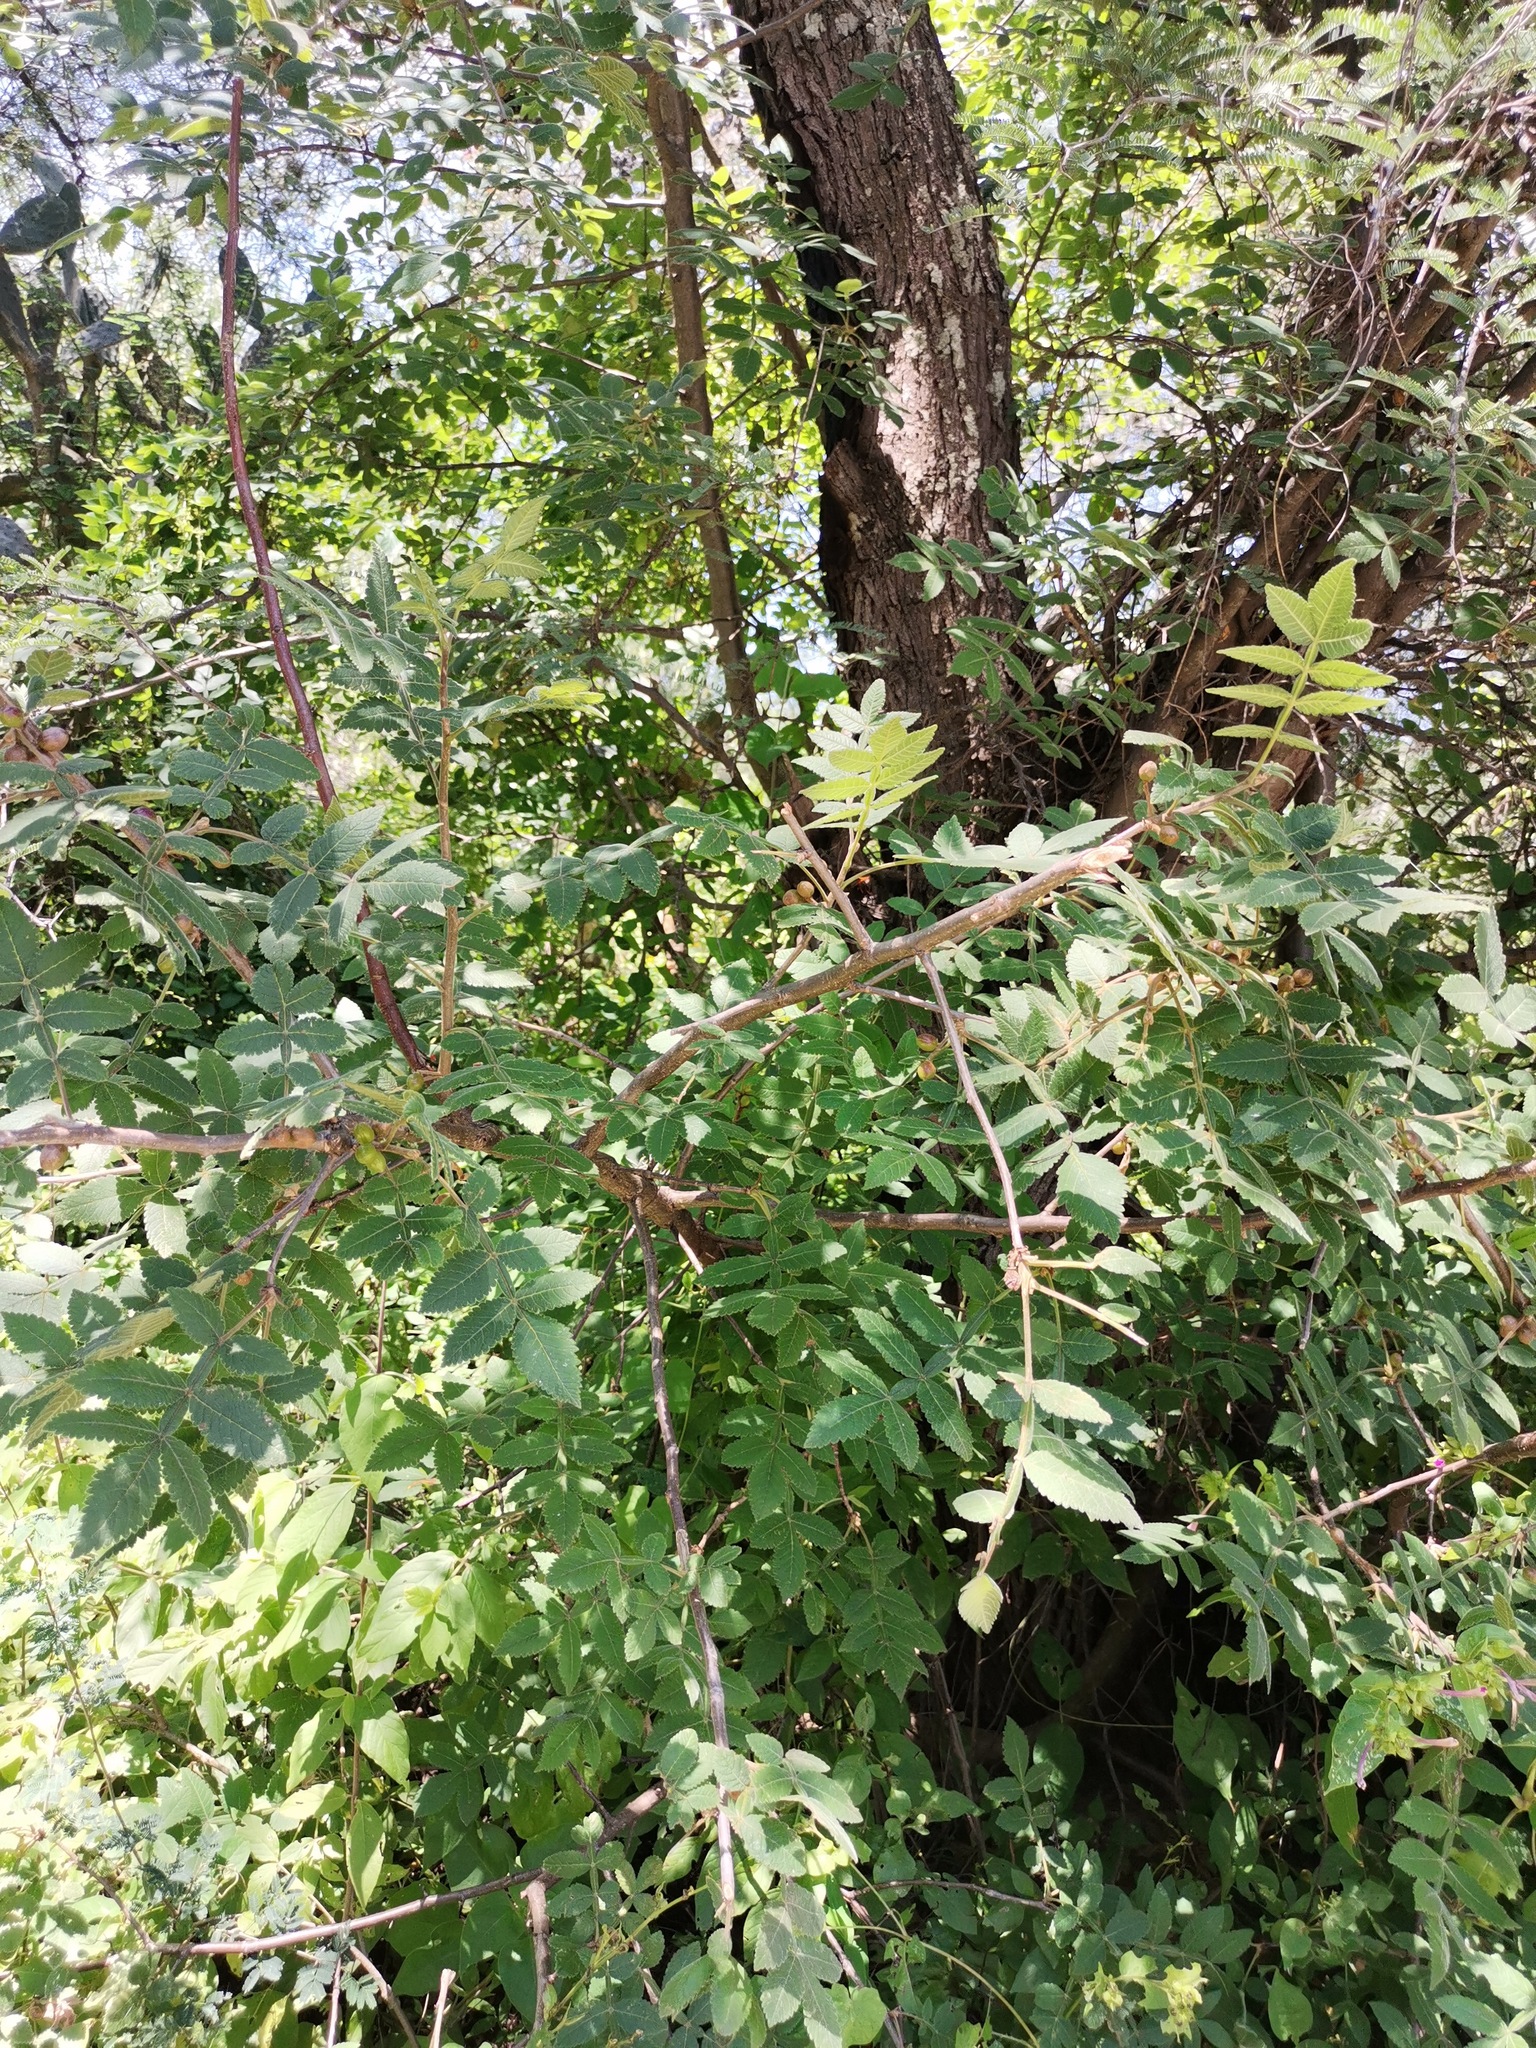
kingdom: Plantae
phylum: Tracheophyta
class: Magnoliopsida
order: Sapindales
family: Burseraceae
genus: Bursera
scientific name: Bursera cuneata
